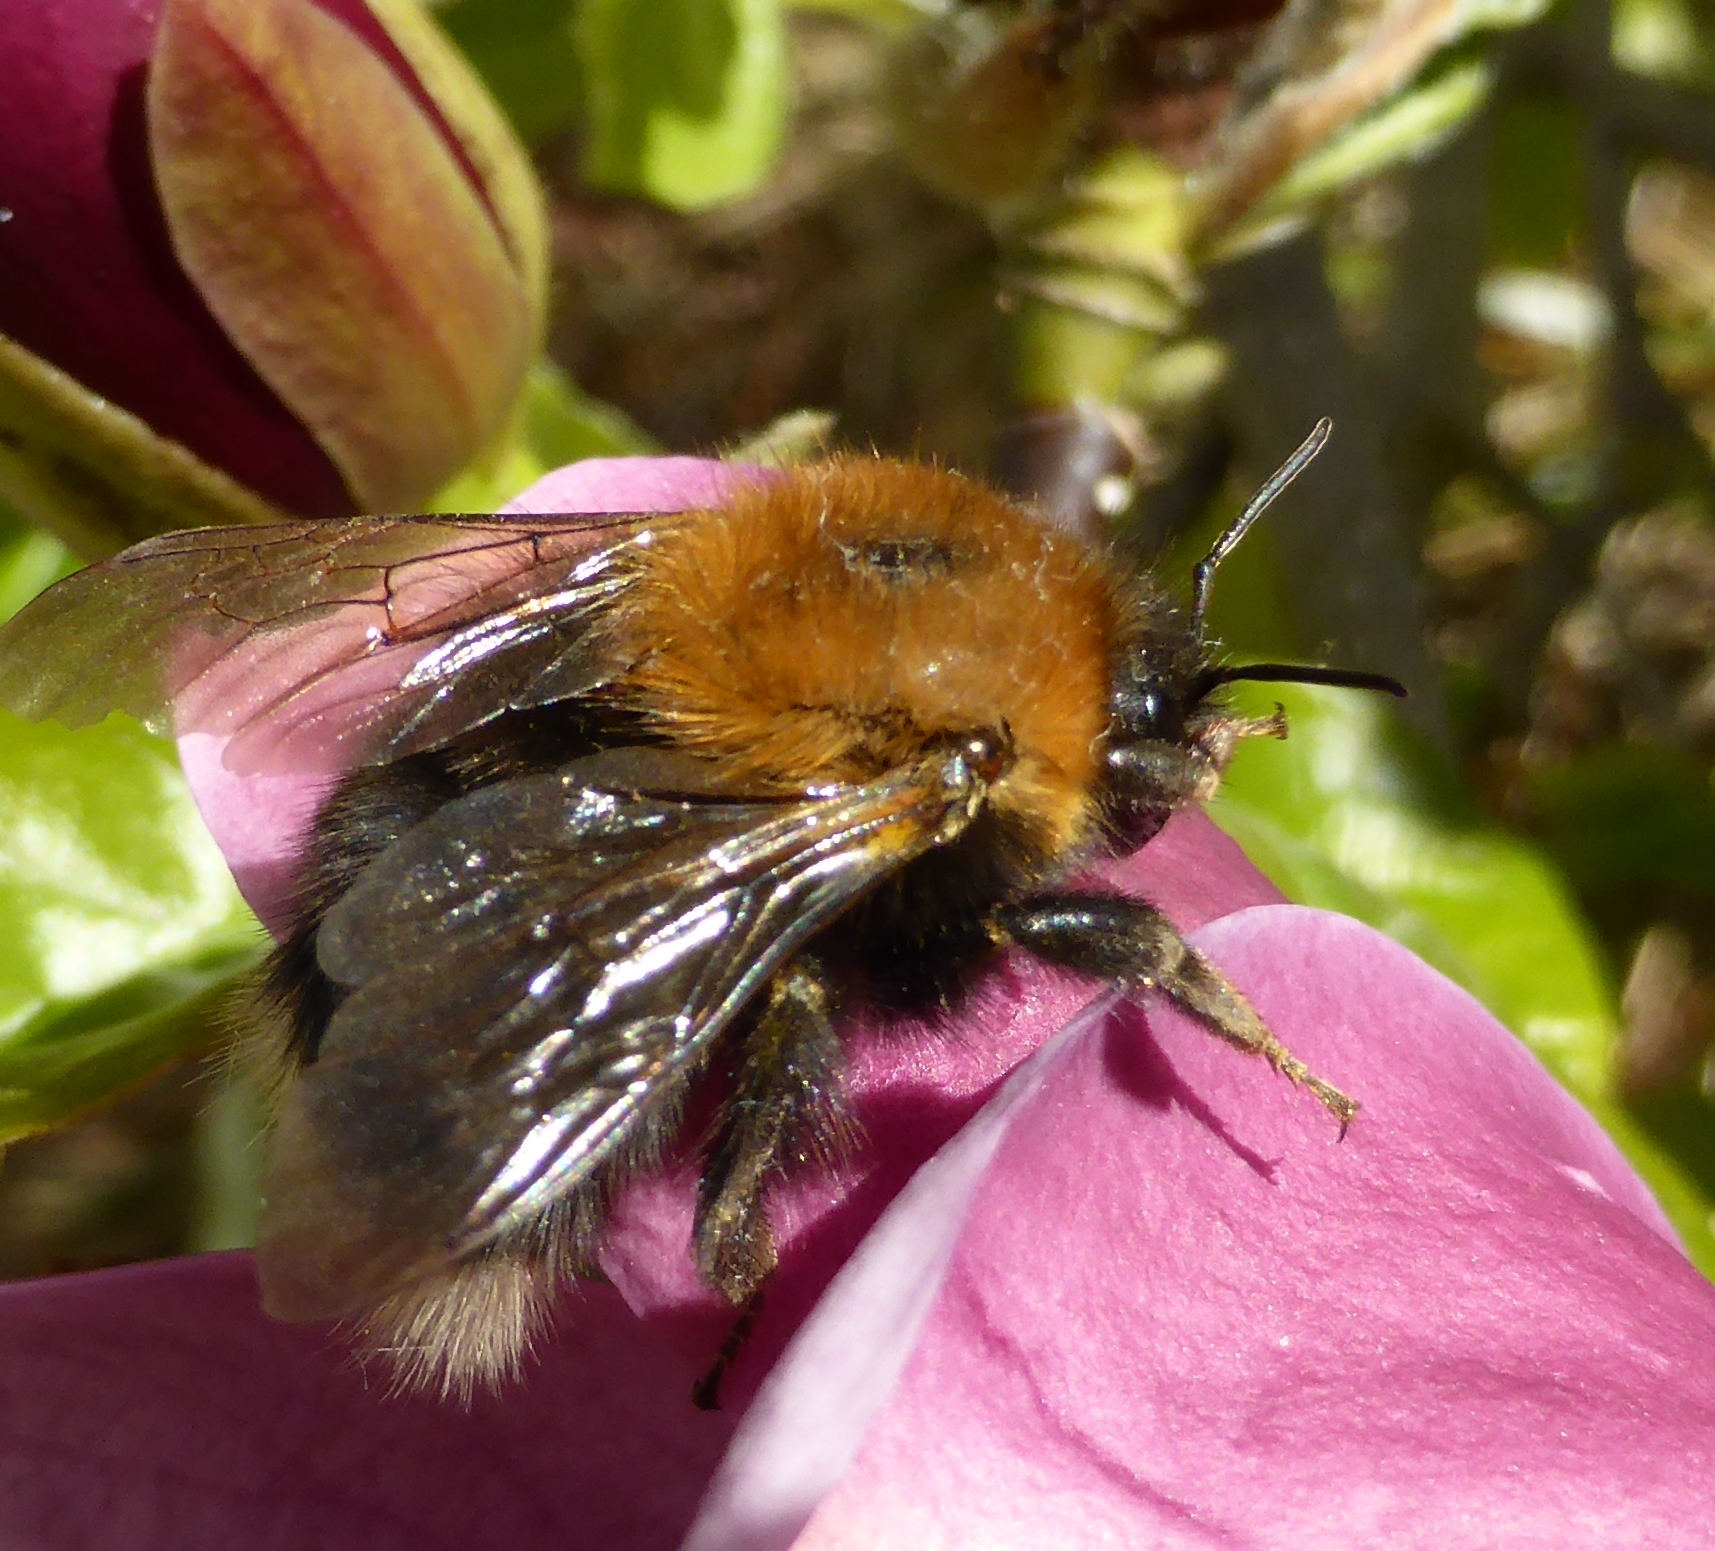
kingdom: Animalia
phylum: Arthropoda
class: Insecta
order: Hymenoptera
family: Apidae
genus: Bombus
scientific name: Bombus hypnorum
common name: New garden bumblebee
